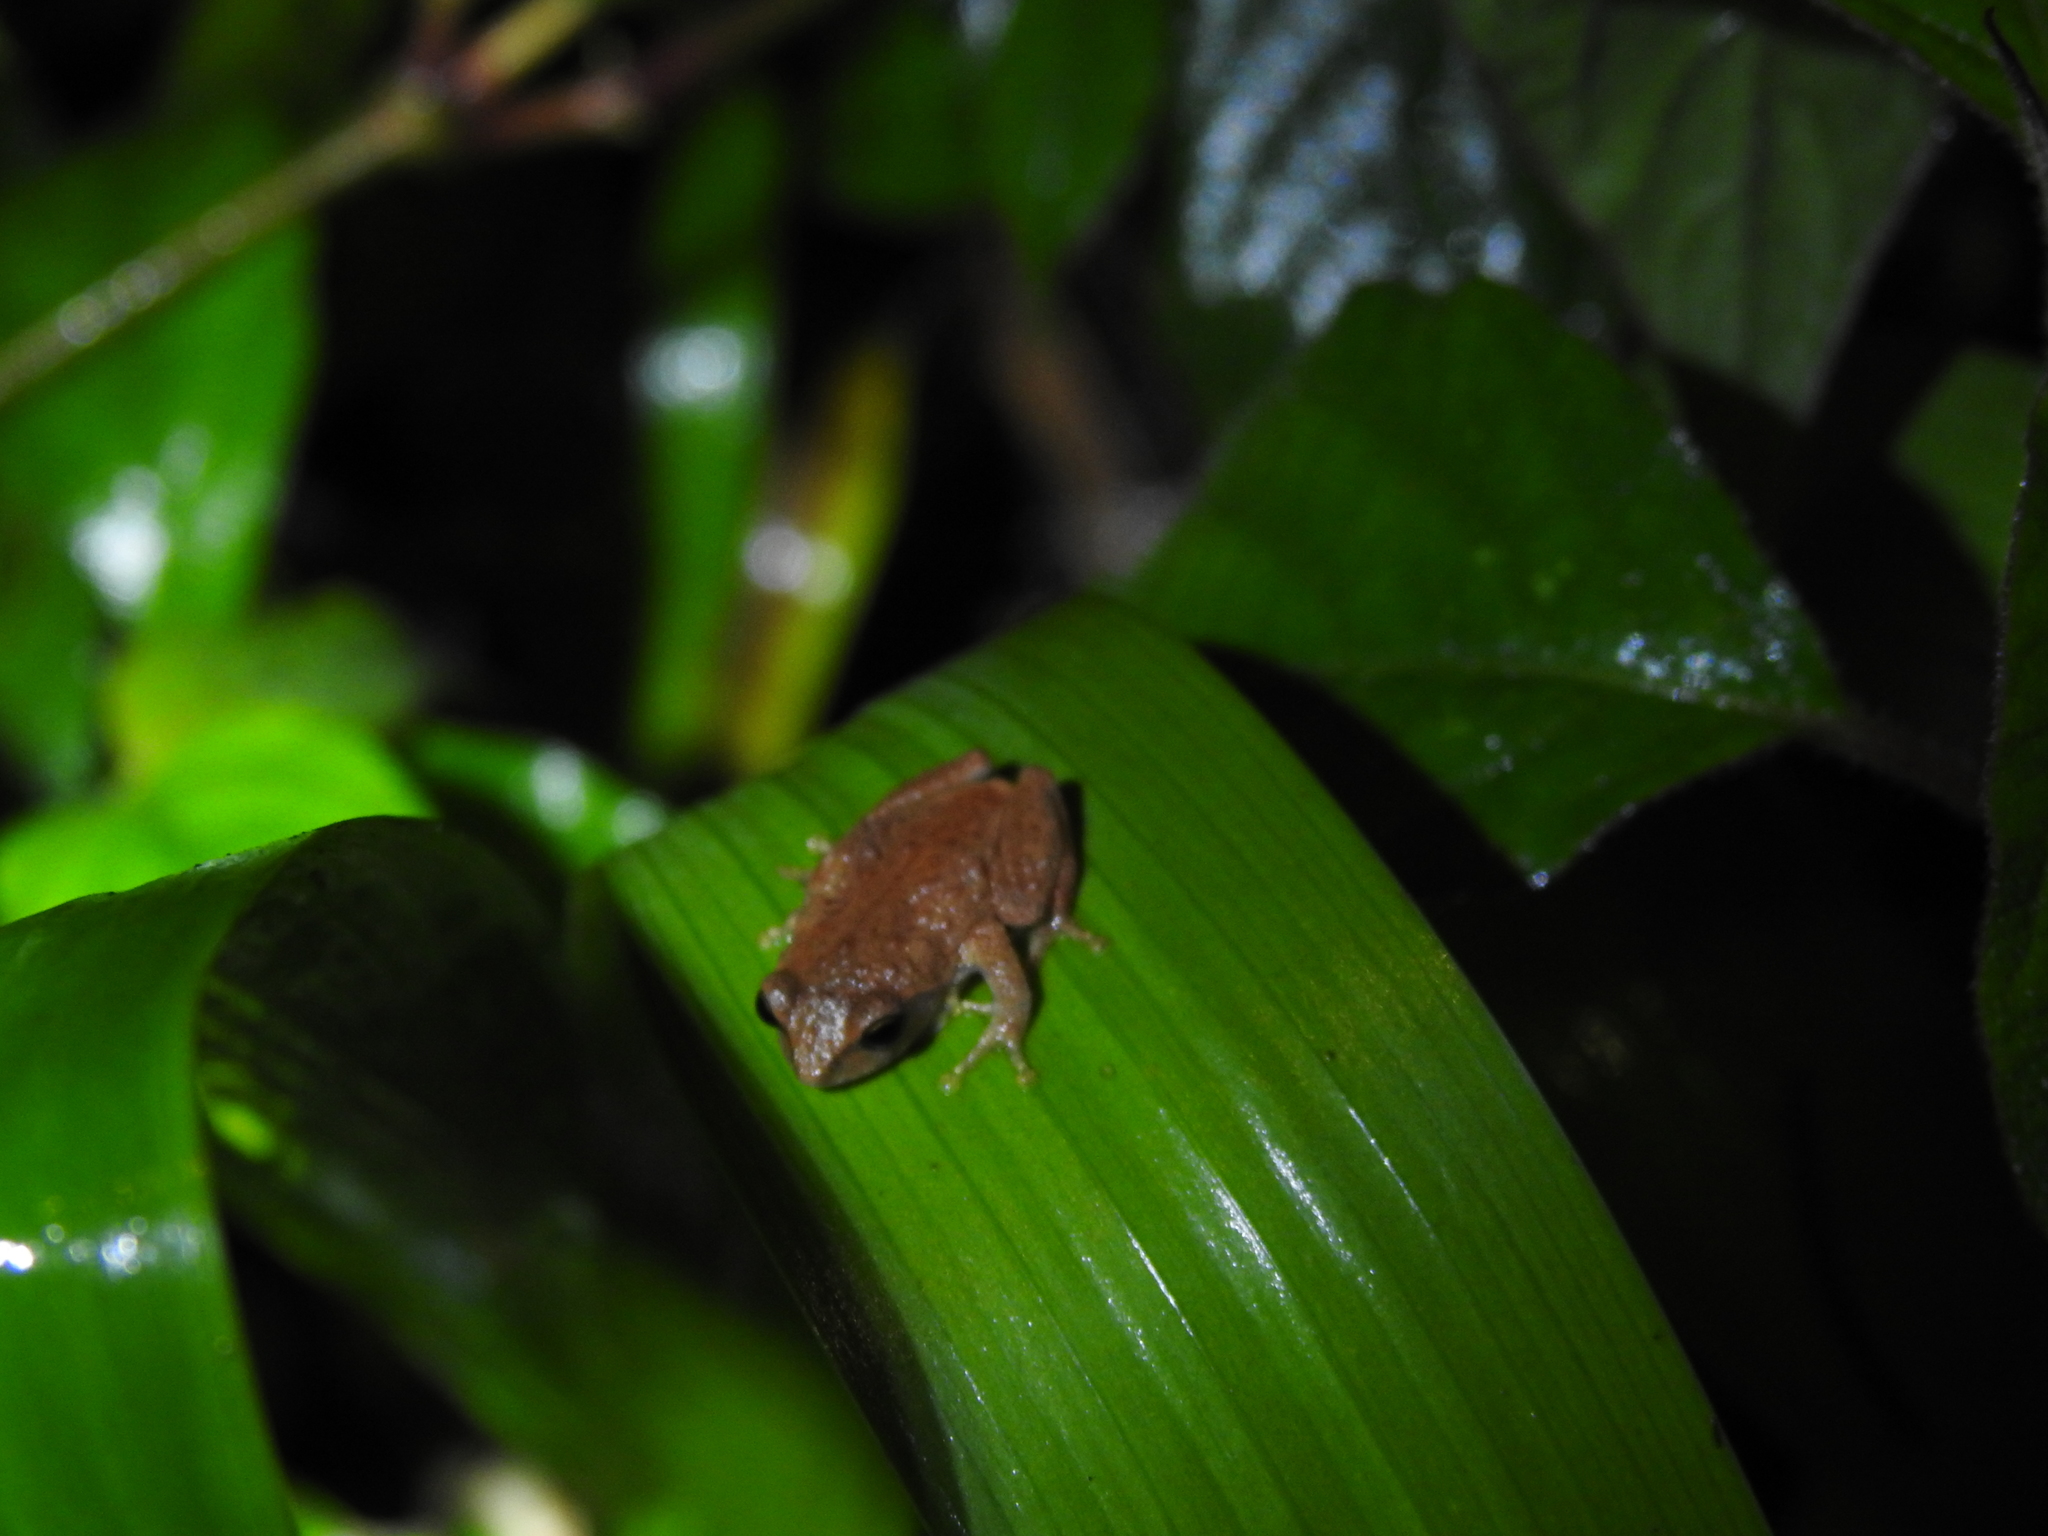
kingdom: Animalia
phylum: Chordata
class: Amphibia
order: Anura
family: Rhacophoridae
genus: Raorchestes
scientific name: Raorchestes dubois
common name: Koadaikanal bush frog
